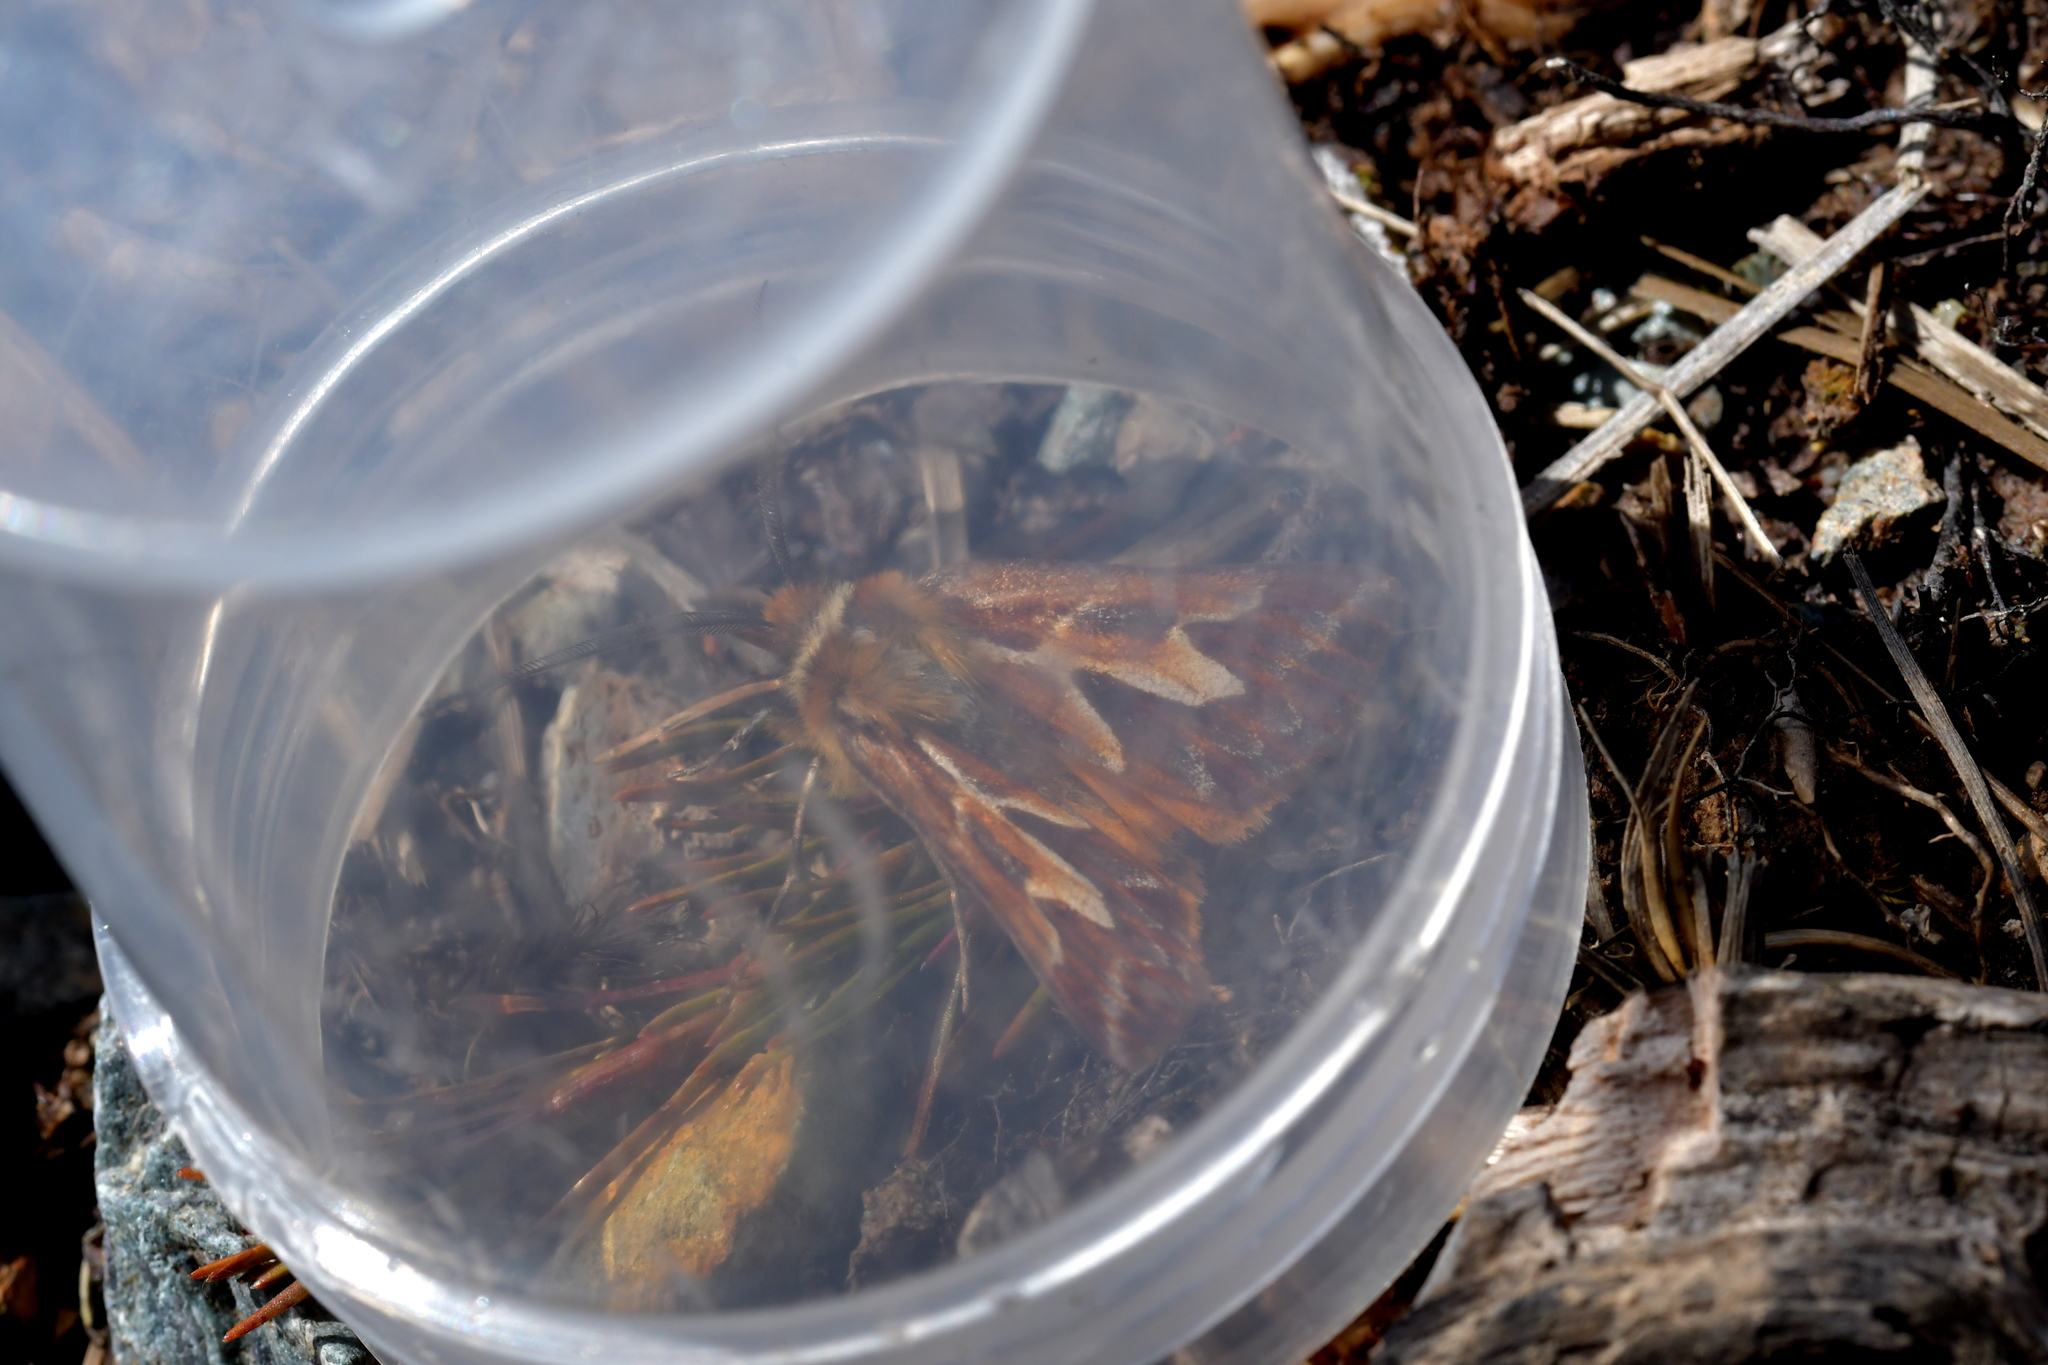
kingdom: Animalia
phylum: Arthropoda
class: Insecta
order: Lepidoptera
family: Geometridae
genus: Declana
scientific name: Declana
